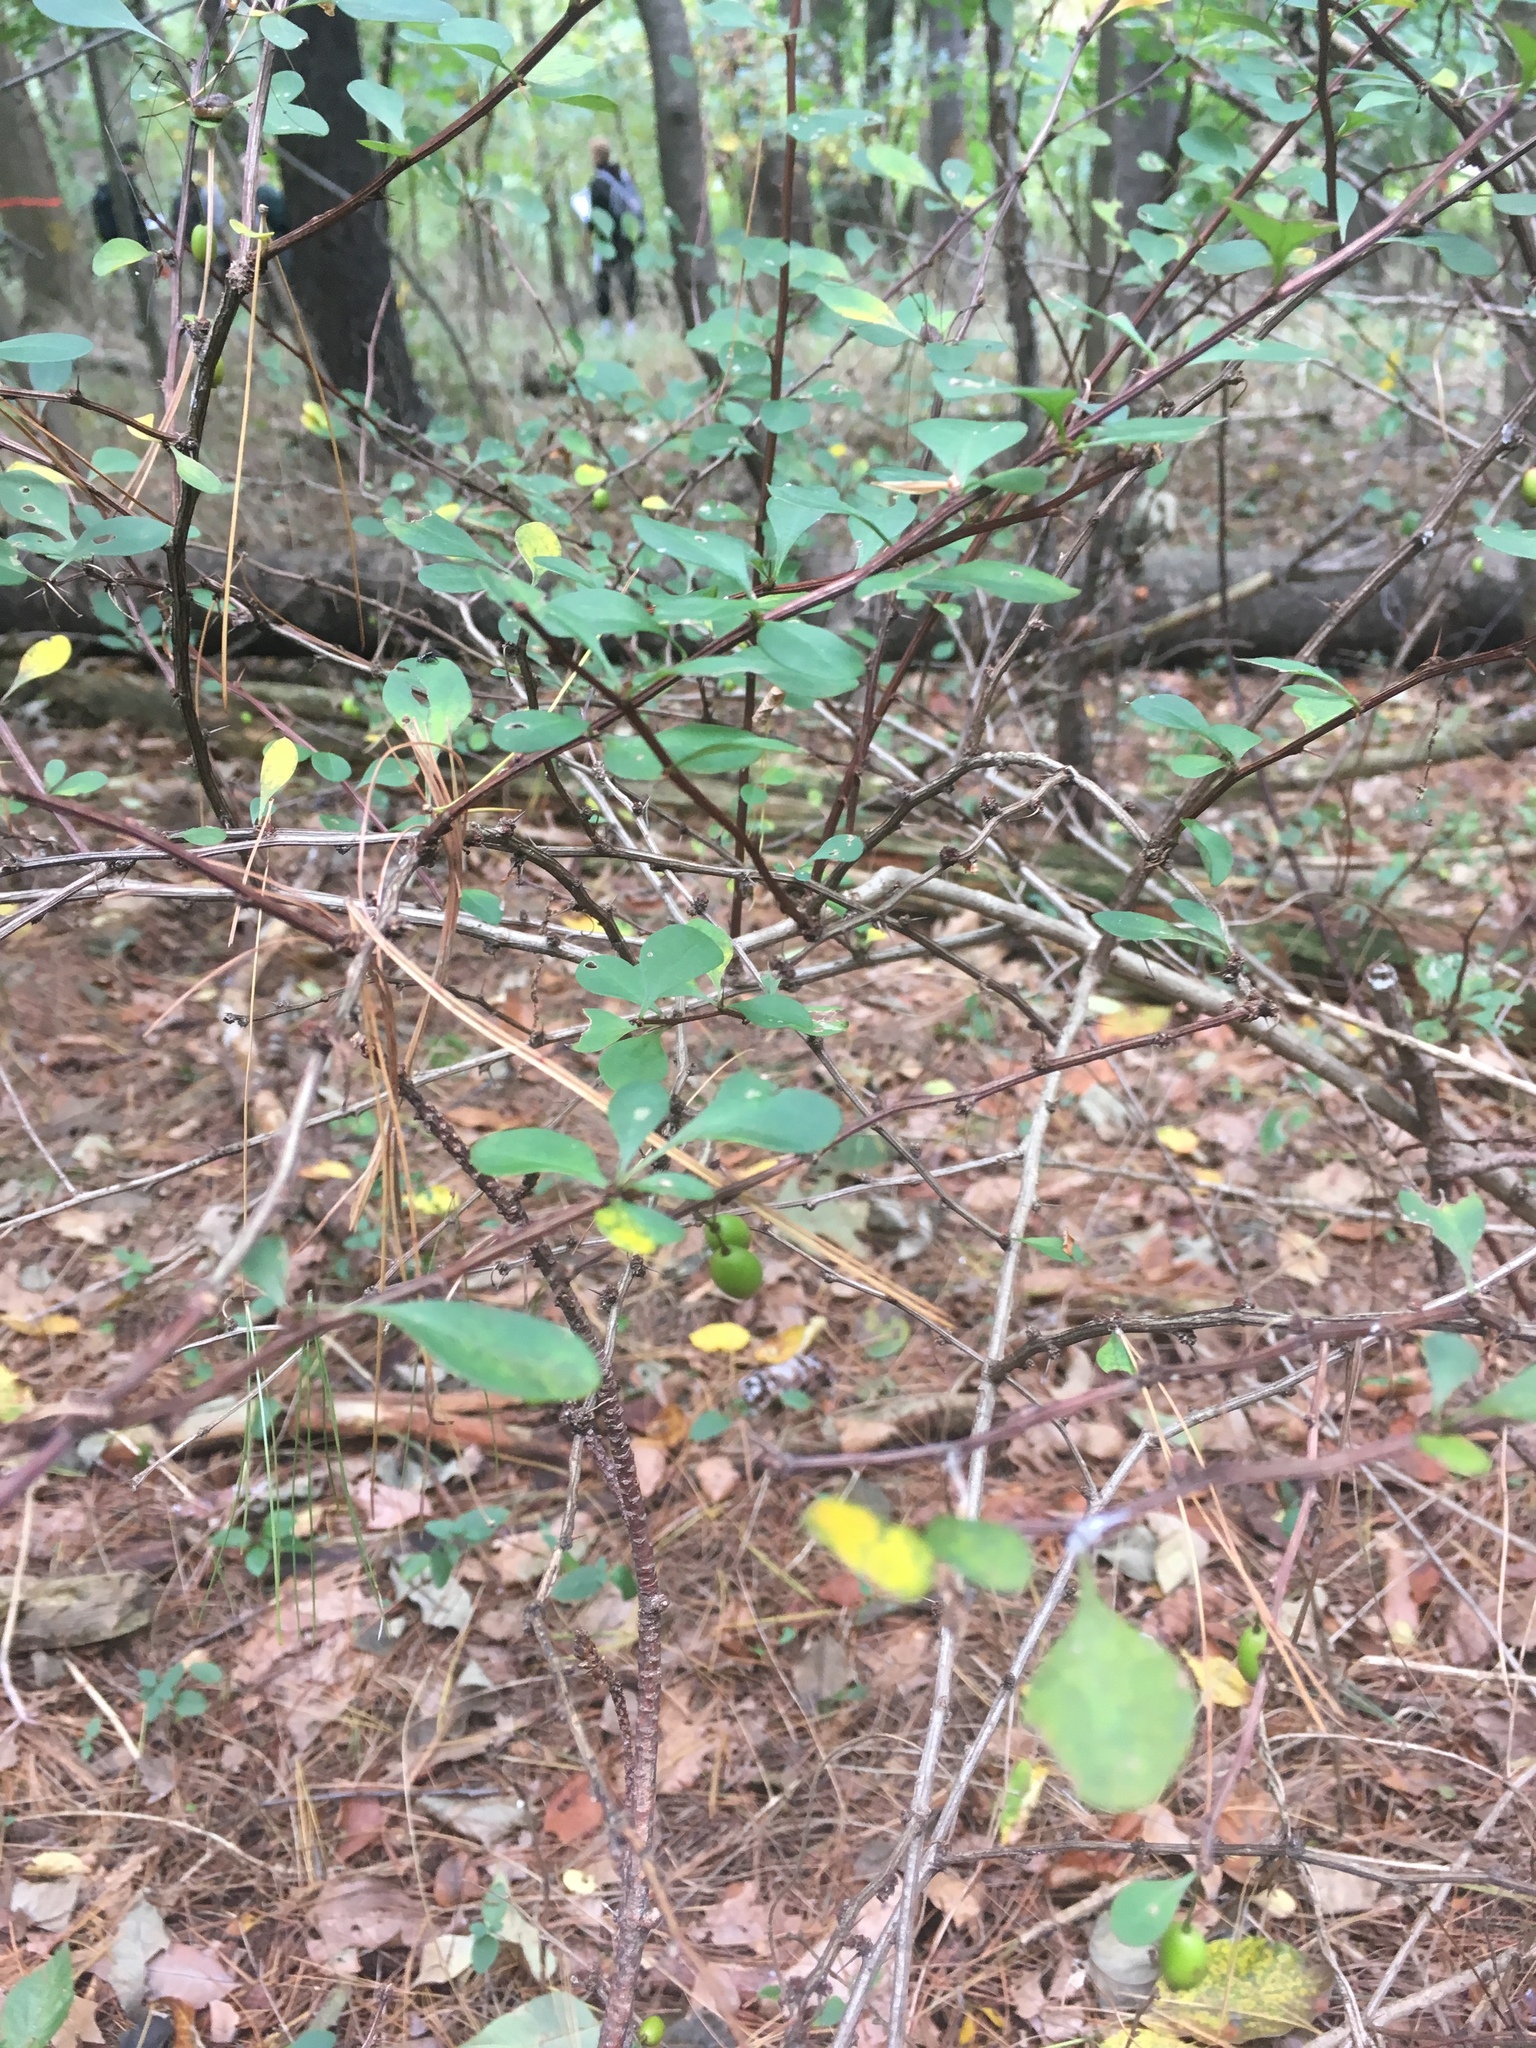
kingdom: Plantae
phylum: Tracheophyta
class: Magnoliopsida
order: Ranunculales
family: Berberidaceae
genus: Berberis
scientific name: Berberis thunbergii
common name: Japanese barberry
